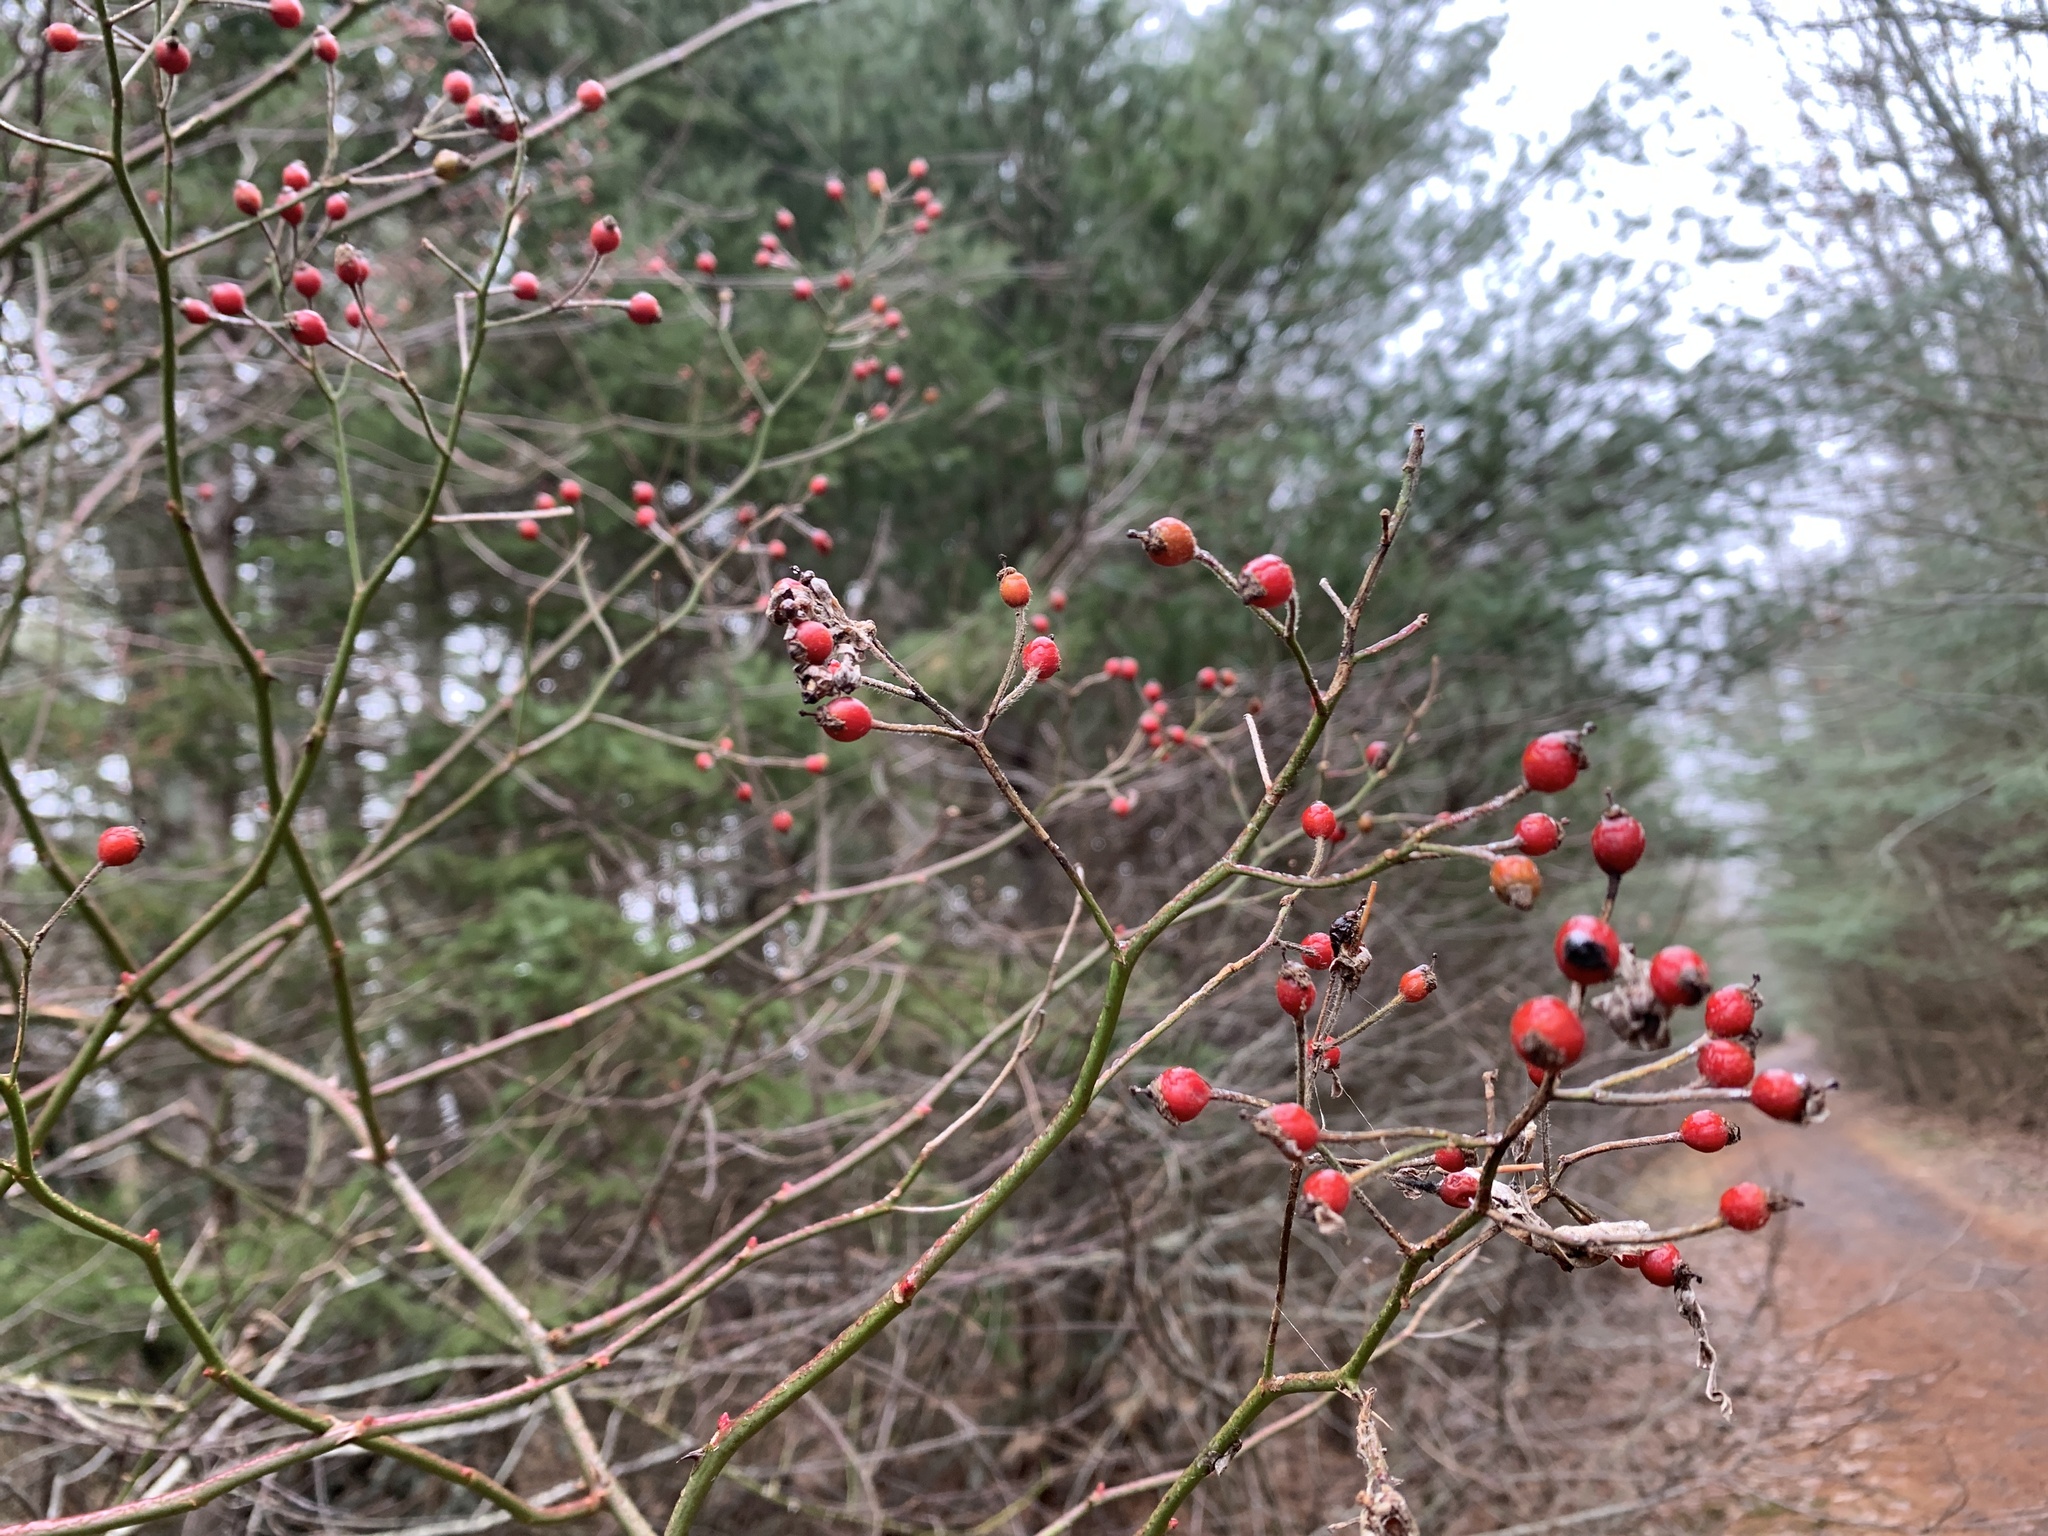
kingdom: Plantae
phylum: Tracheophyta
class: Magnoliopsida
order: Rosales
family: Rosaceae
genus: Rosa
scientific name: Rosa multiflora
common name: Multiflora rose
